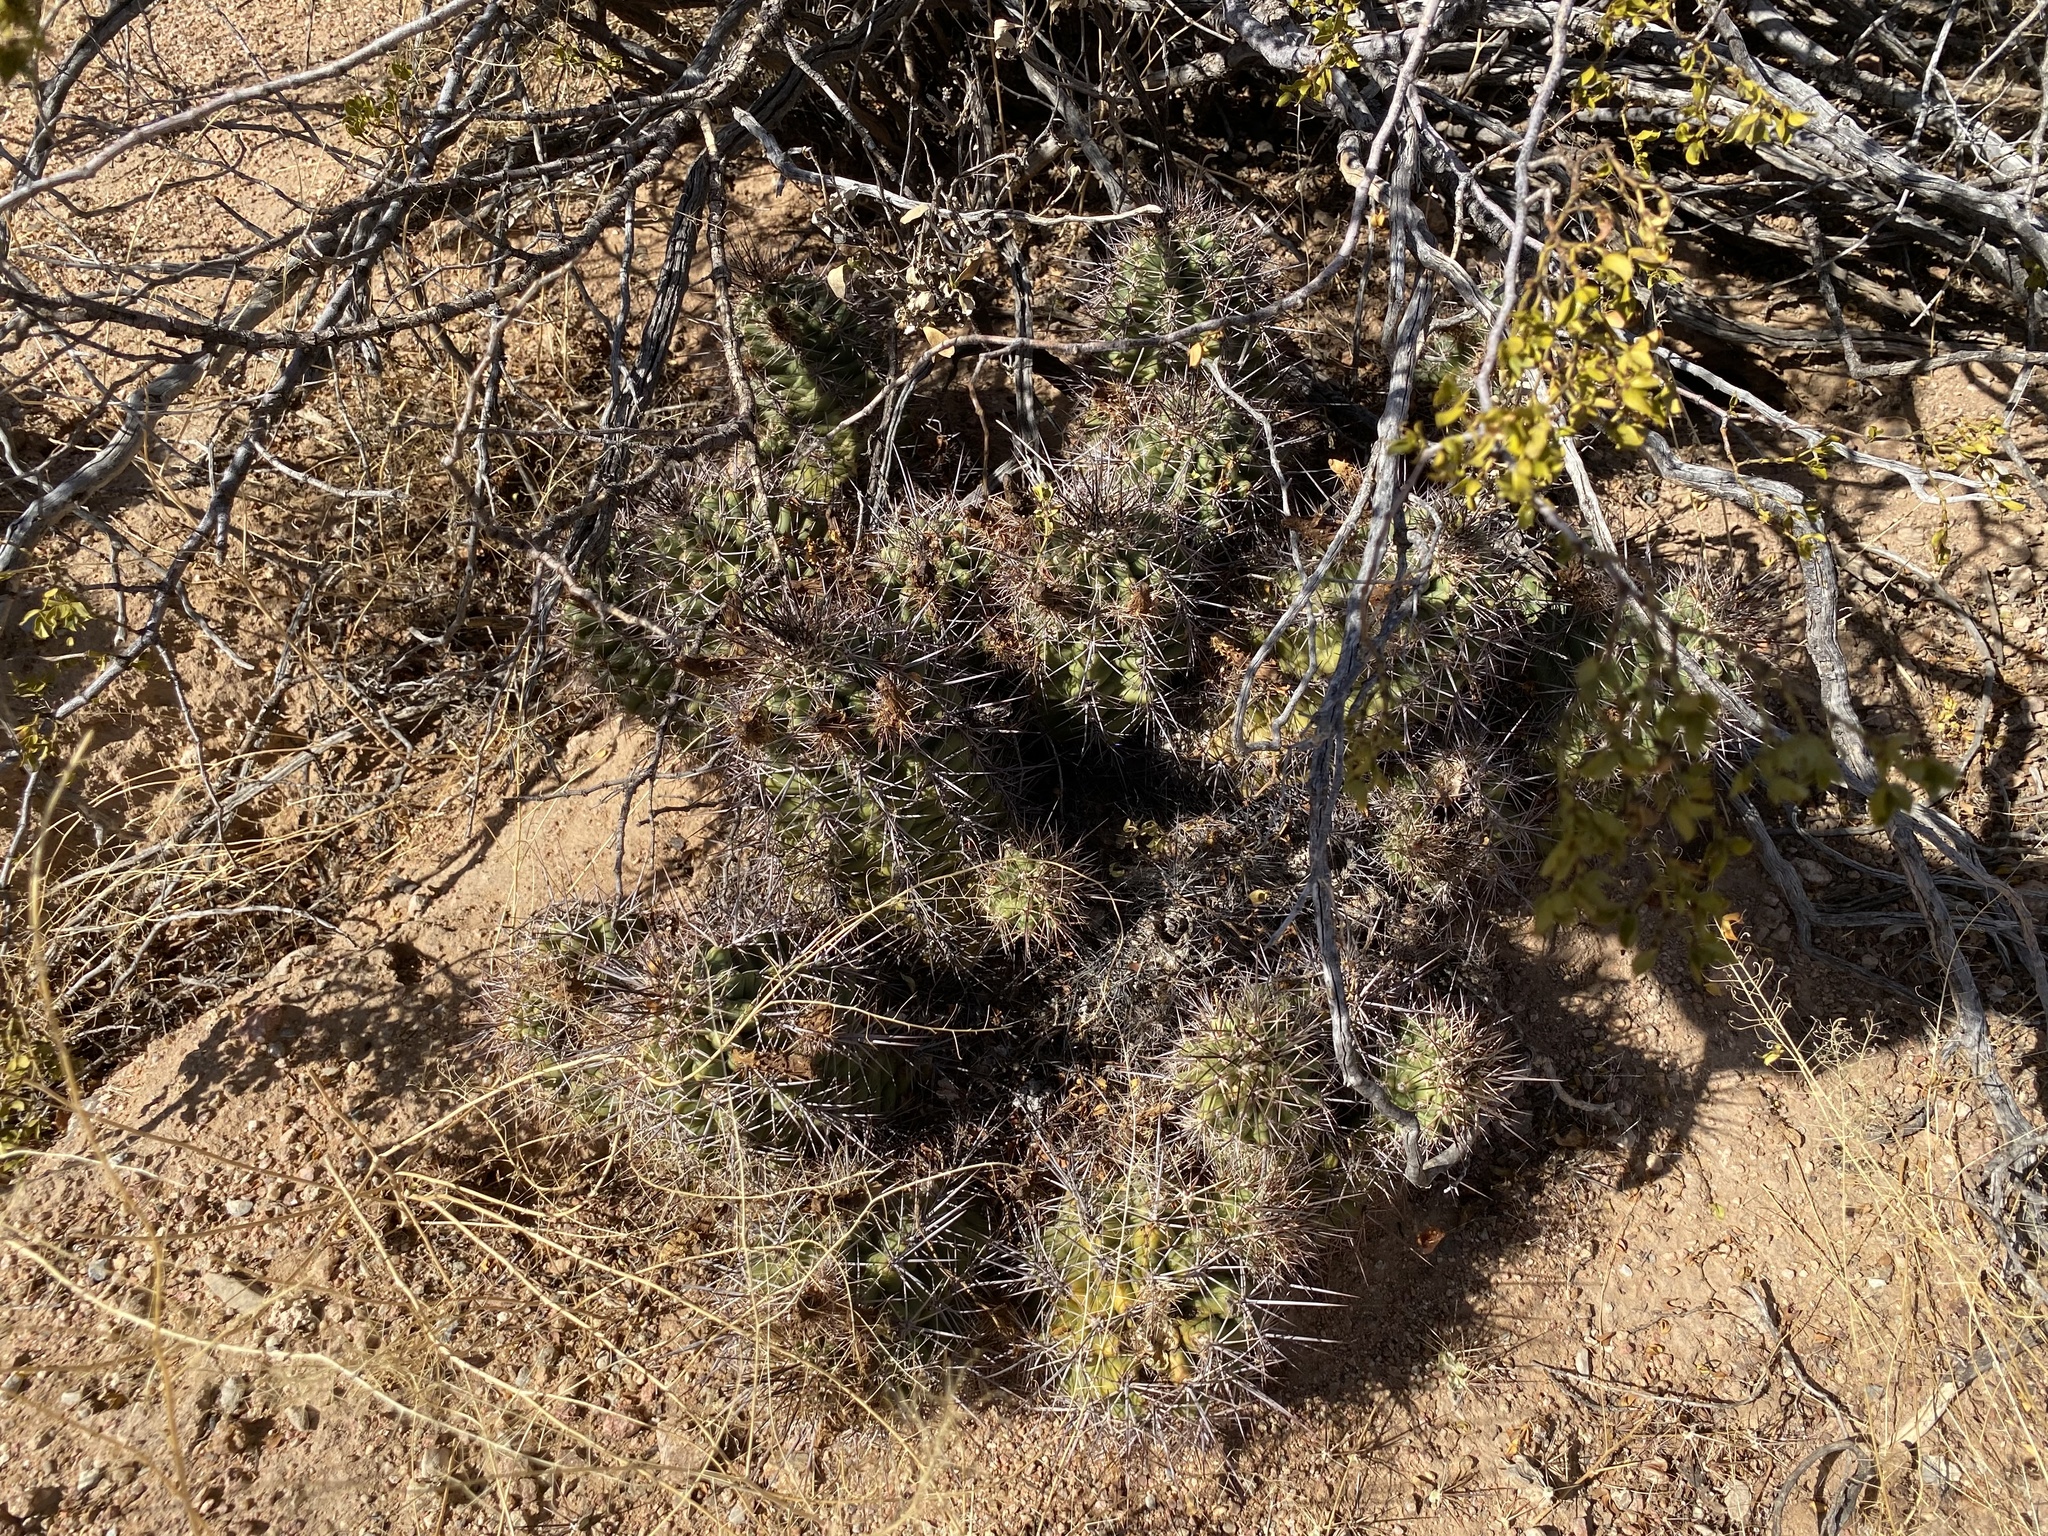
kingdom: Plantae
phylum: Tracheophyta
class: Magnoliopsida
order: Caryophyllales
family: Cactaceae
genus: Echinocereus
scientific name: Echinocereus coccineus
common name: Scarlet hedgehog cactus
